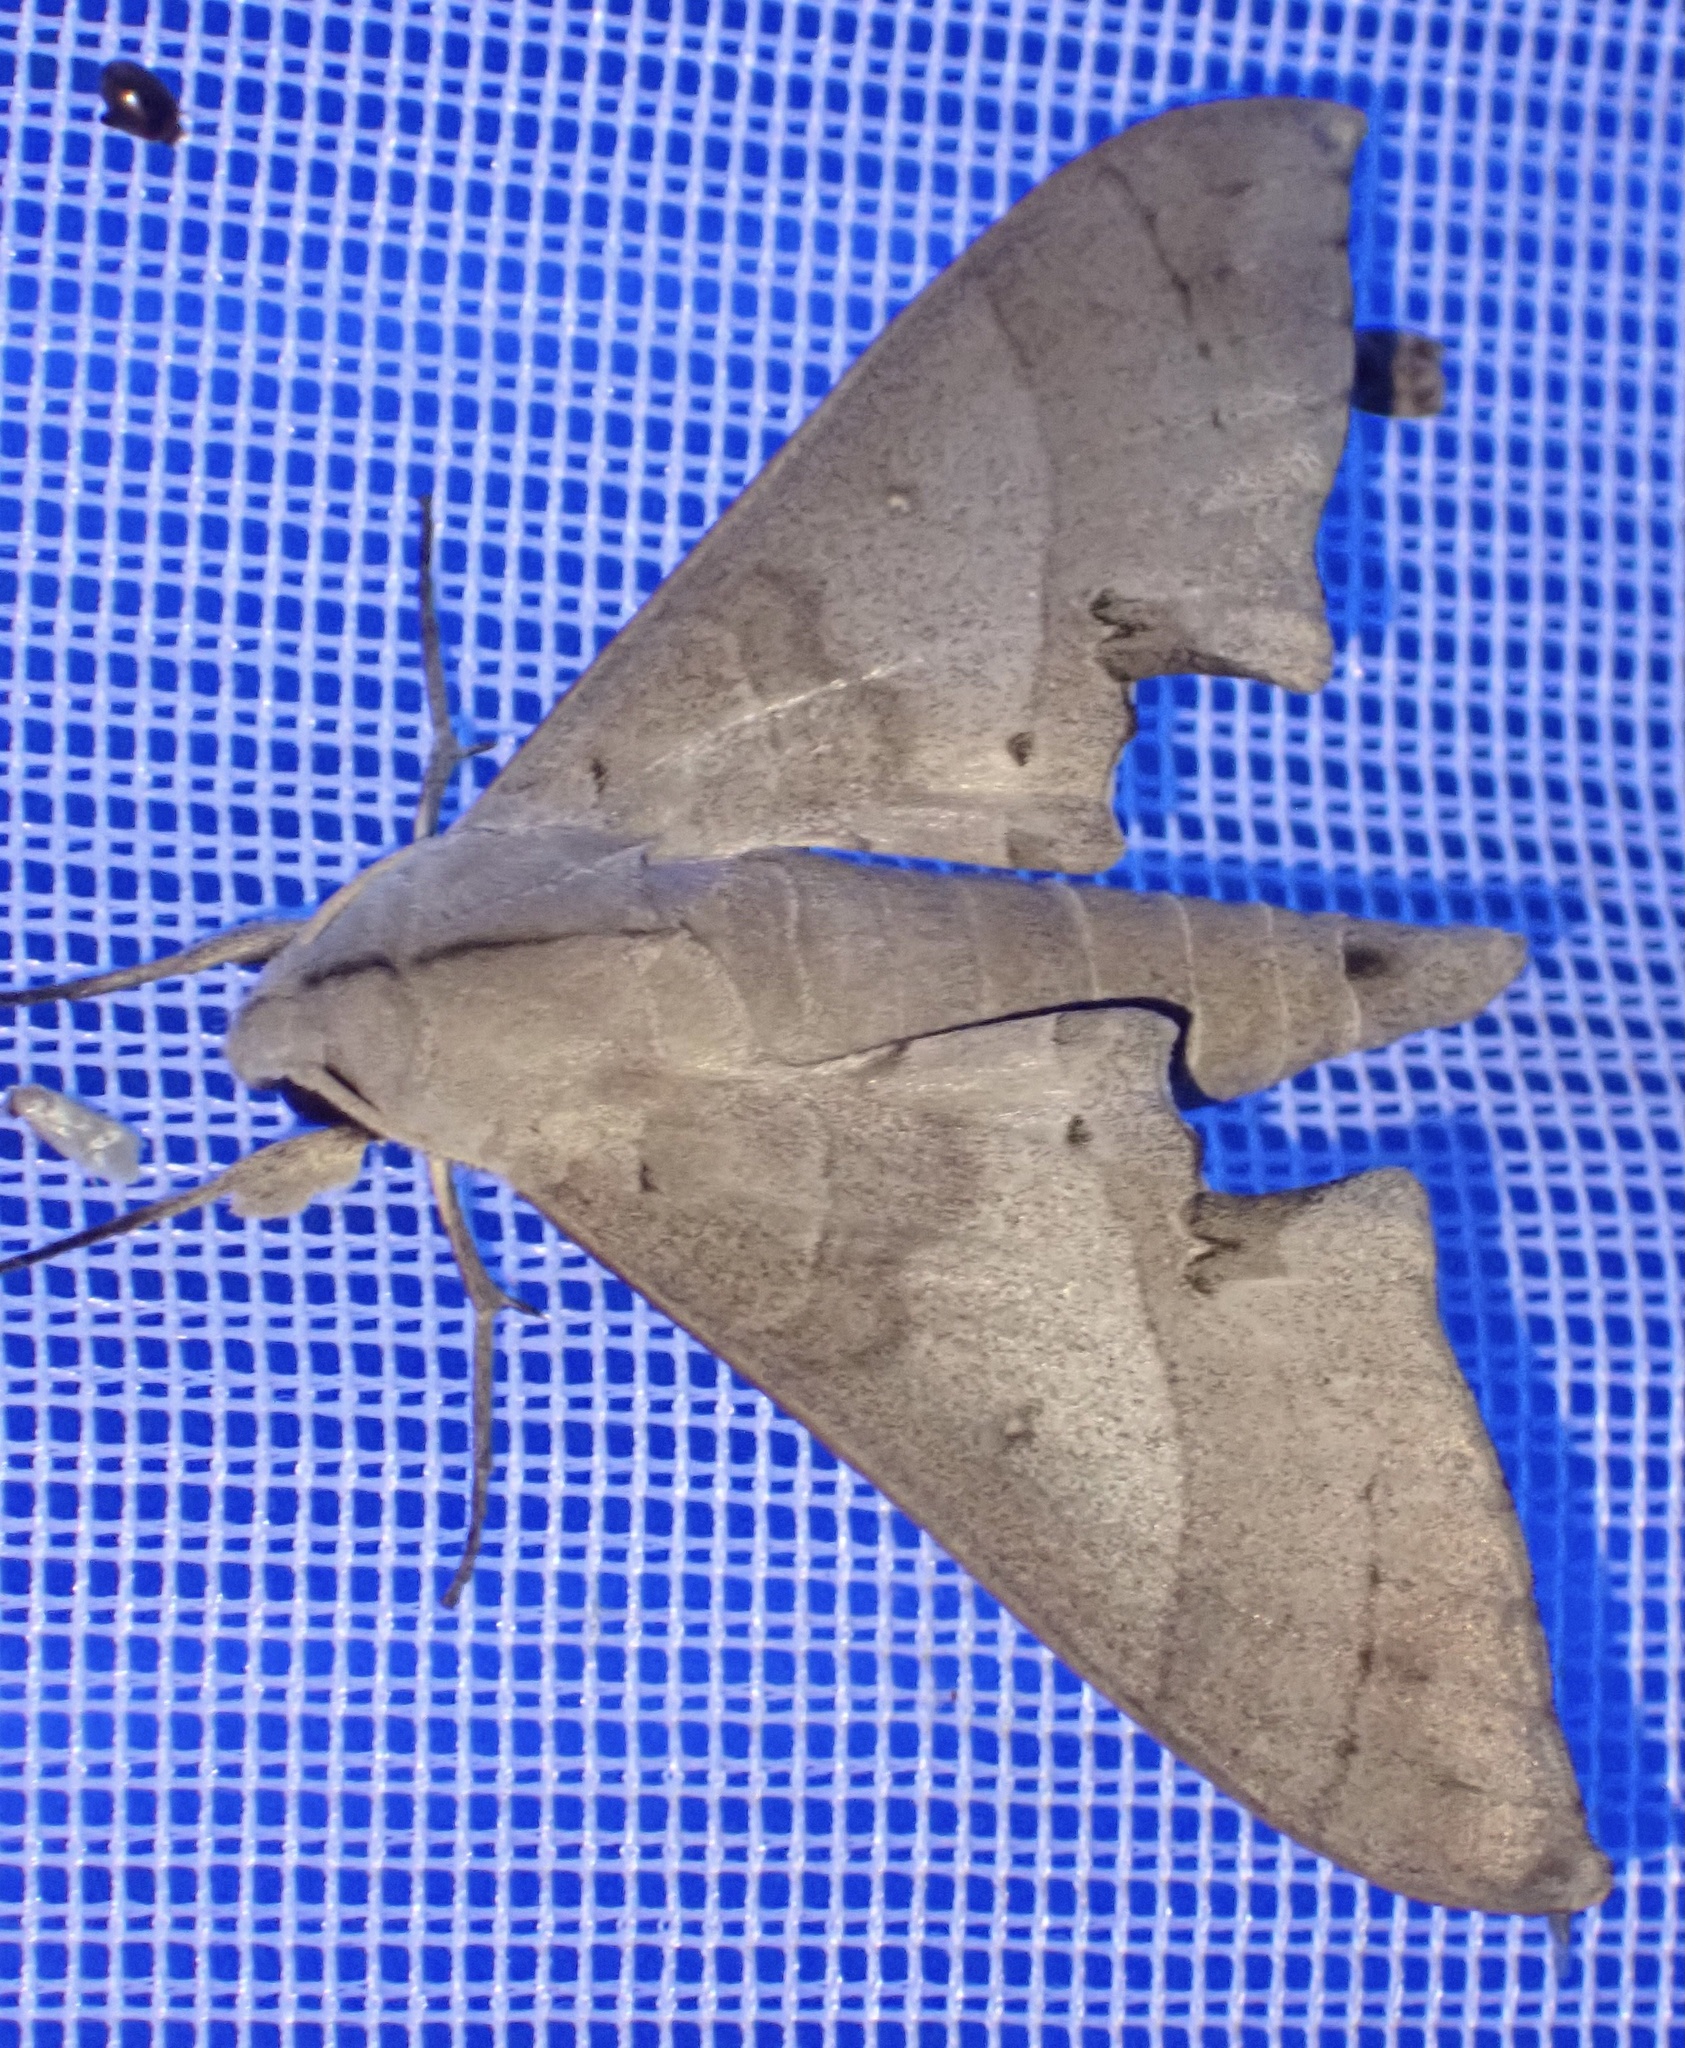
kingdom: Animalia
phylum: Arthropoda
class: Insecta
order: Lepidoptera
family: Sphingidae
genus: Polyptychus
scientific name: Polyptychus carteri
